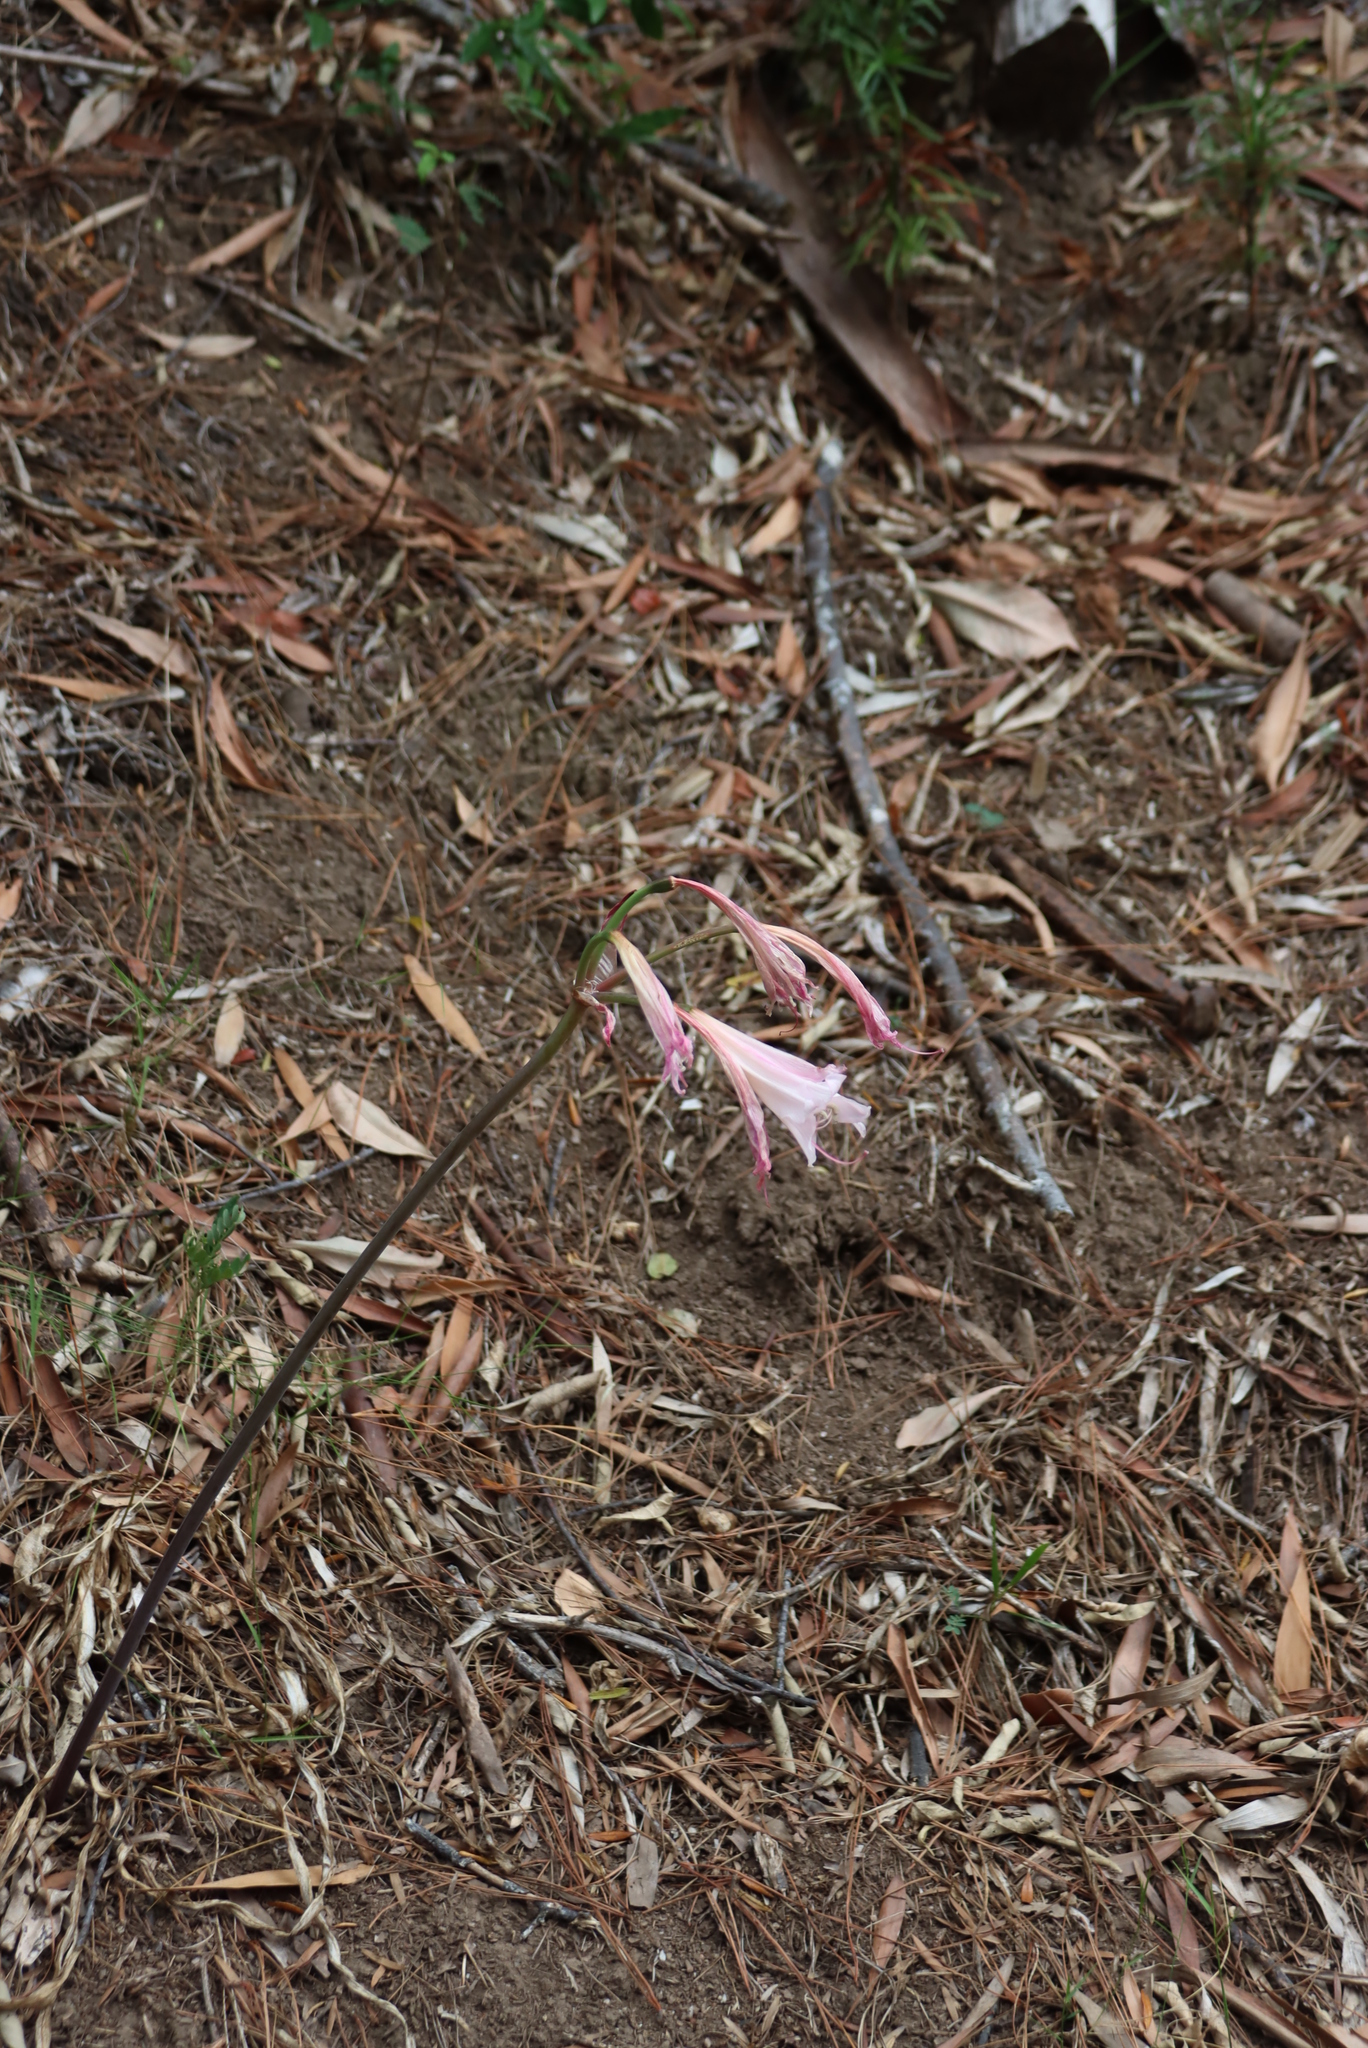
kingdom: Plantae
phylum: Tracheophyta
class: Liliopsida
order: Asparagales
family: Amaryllidaceae
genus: Amaryllis
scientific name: Amaryllis belladonna
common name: Jersey lily
